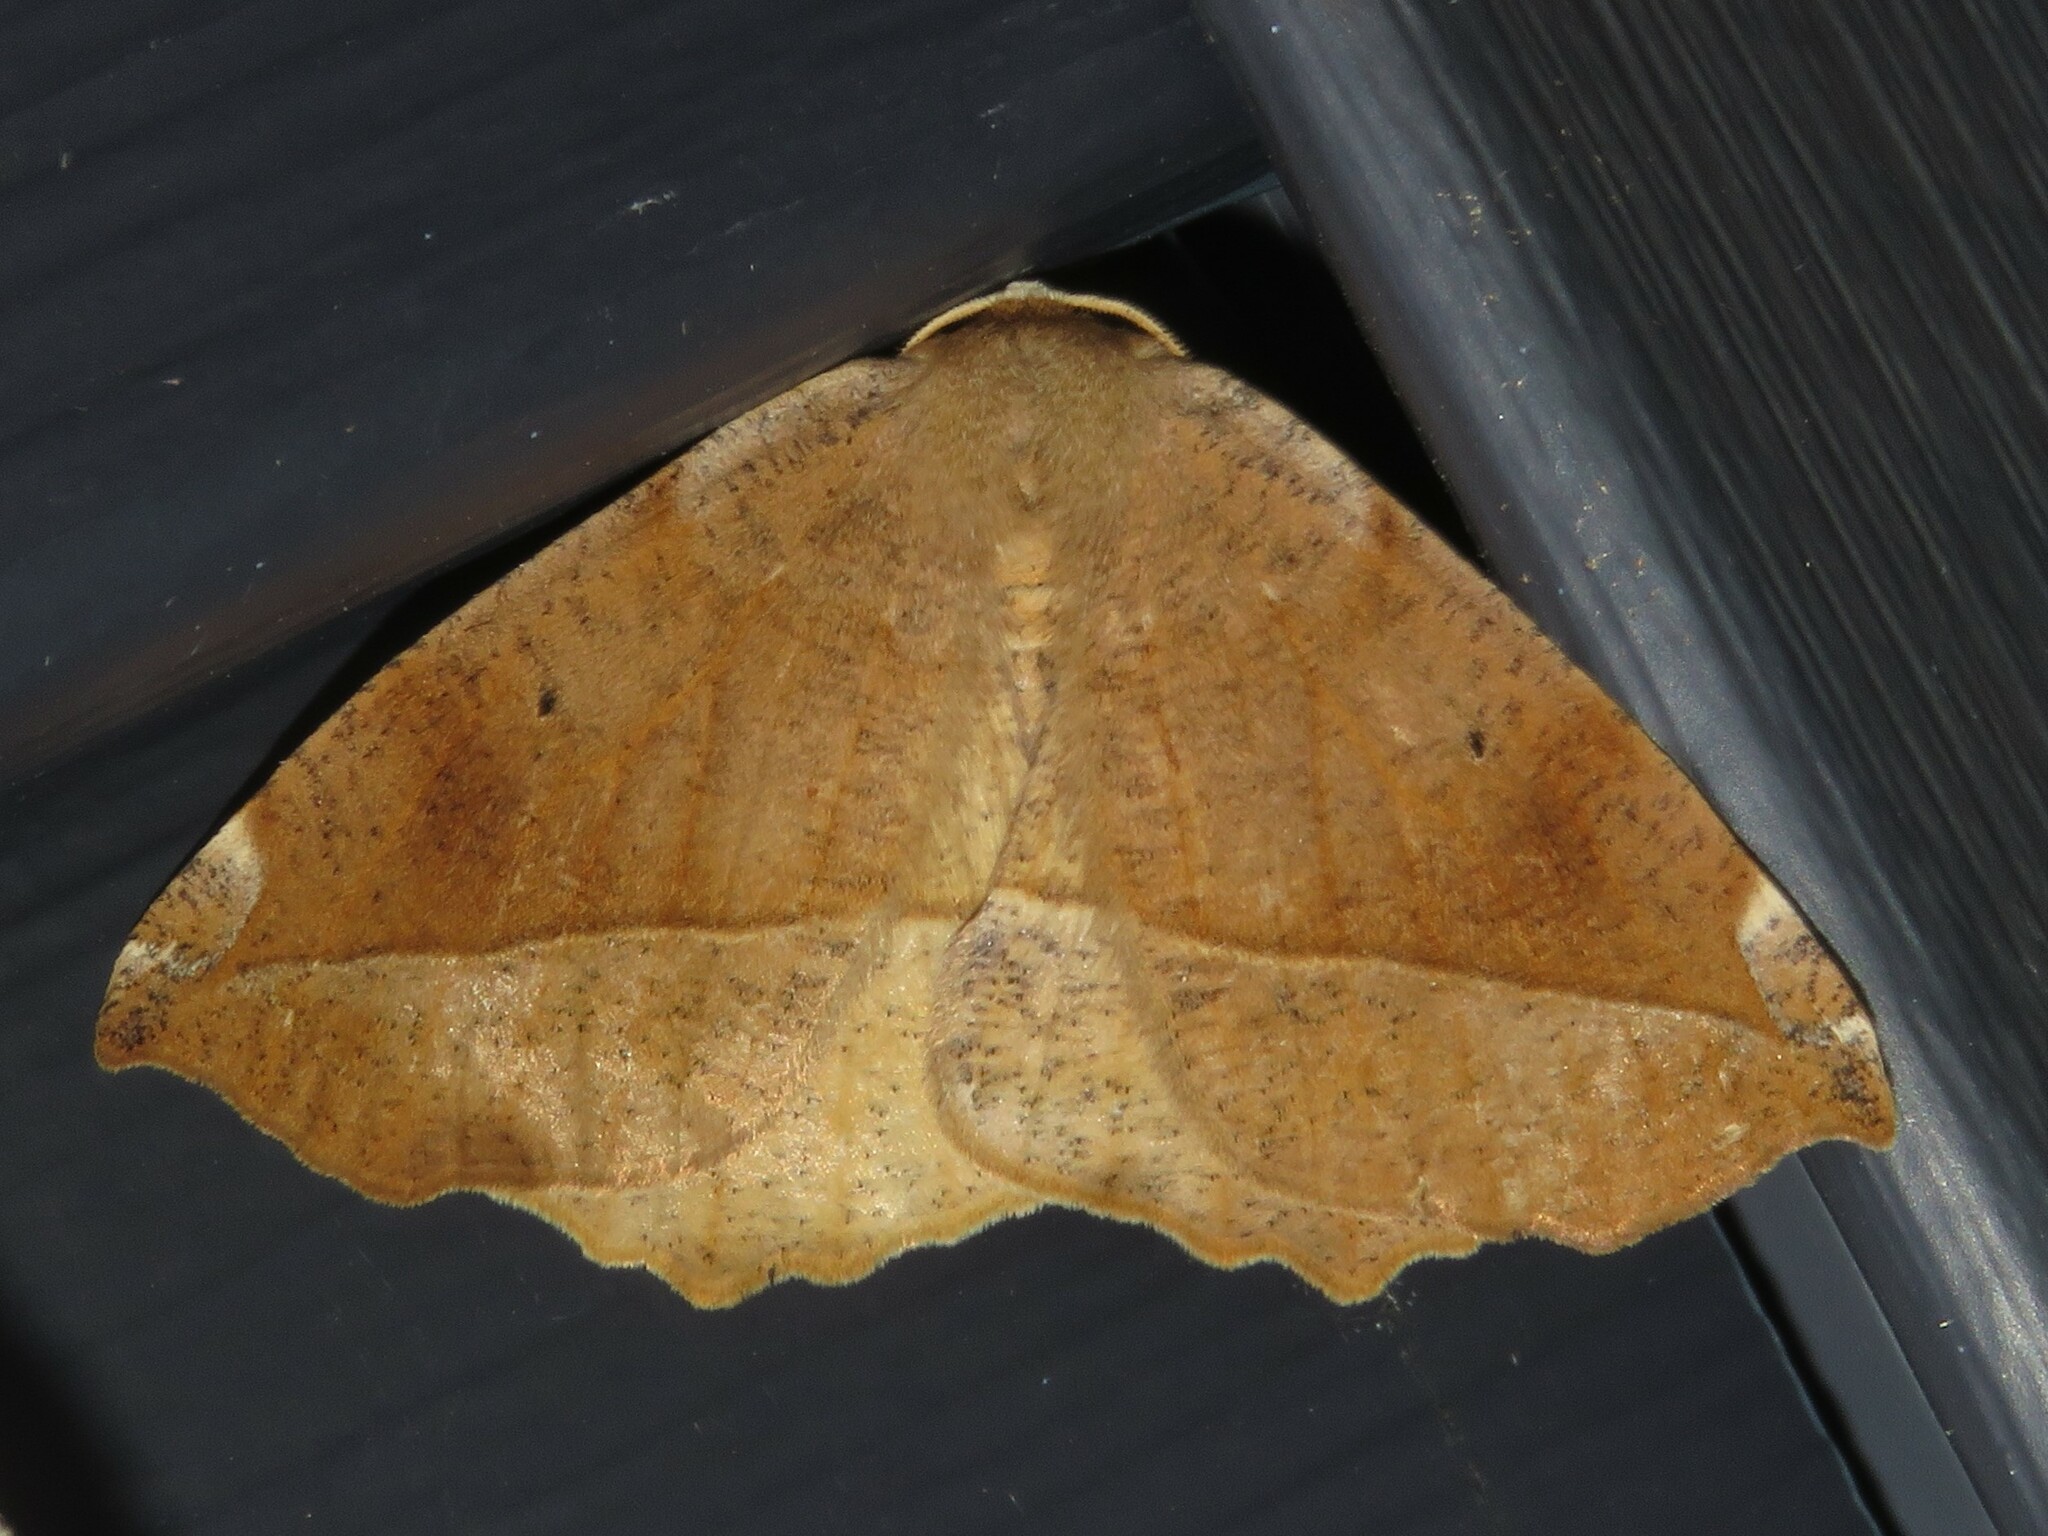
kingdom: Animalia
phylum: Arthropoda
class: Insecta
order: Lepidoptera
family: Geometridae
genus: Eutrapela
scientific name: Eutrapela clemataria
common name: Curved-toothed geometer
